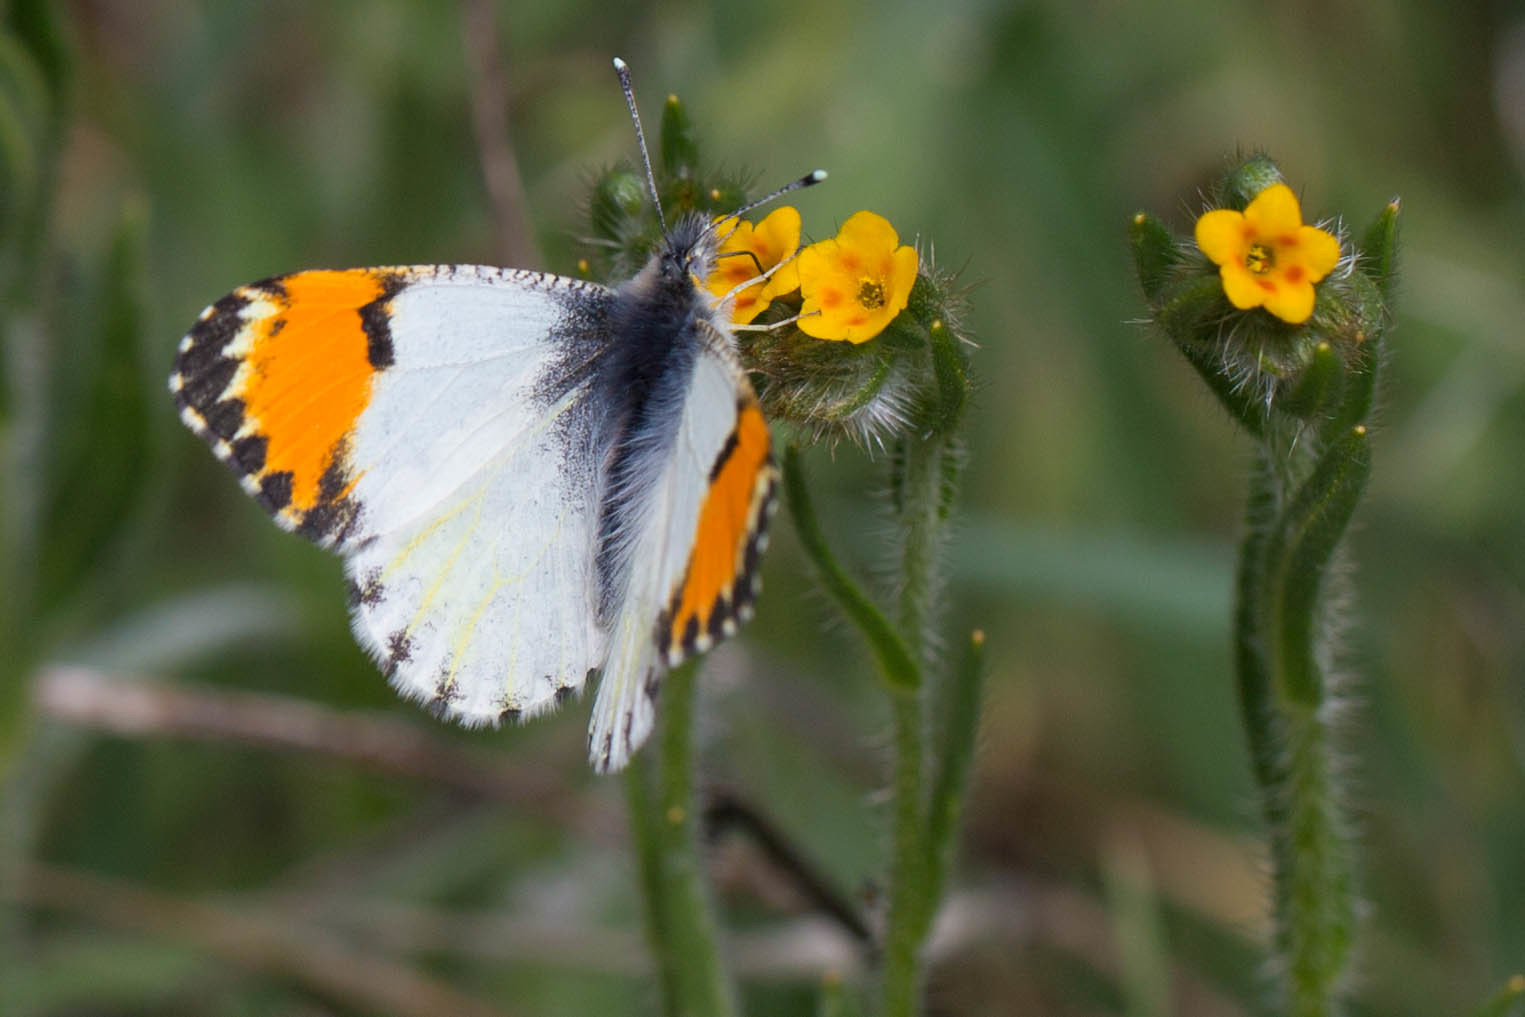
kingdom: Animalia
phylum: Arthropoda
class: Insecta
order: Lepidoptera
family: Pieridae
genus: Anthocharis
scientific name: Anthocharis sara
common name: Sara's orangetip
